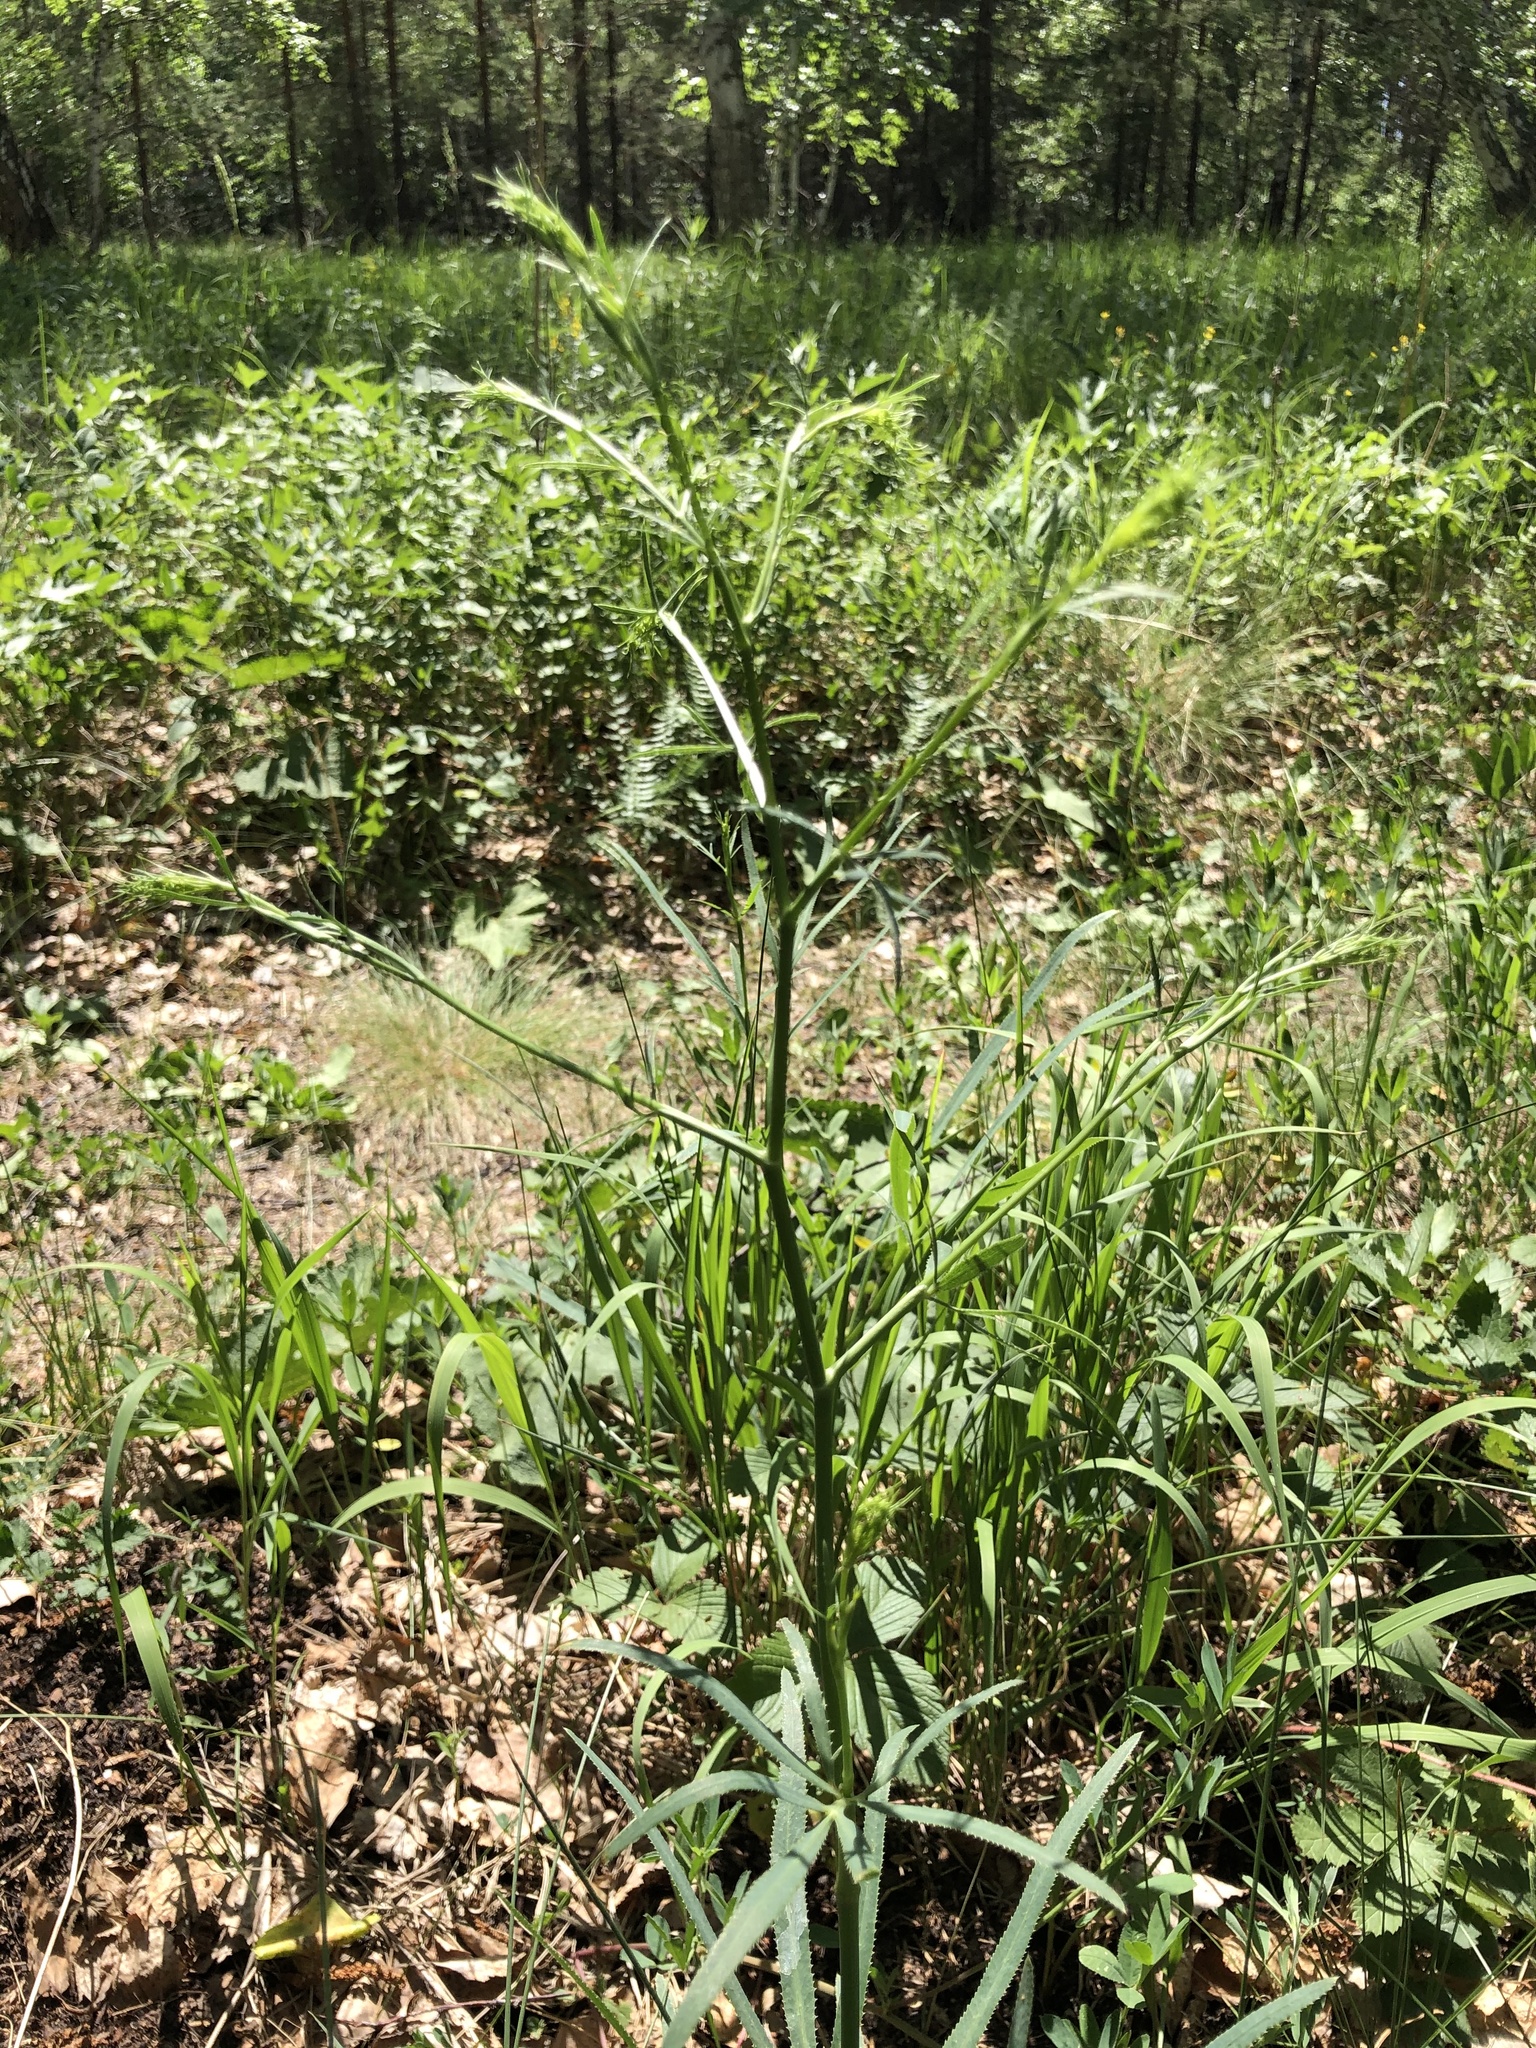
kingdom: Plantae
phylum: Tracheophyta
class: Magnoliopsida
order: Apiales
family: Apiaceae
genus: Falcaria
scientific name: Falcaria vulgaris
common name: Longleaf
